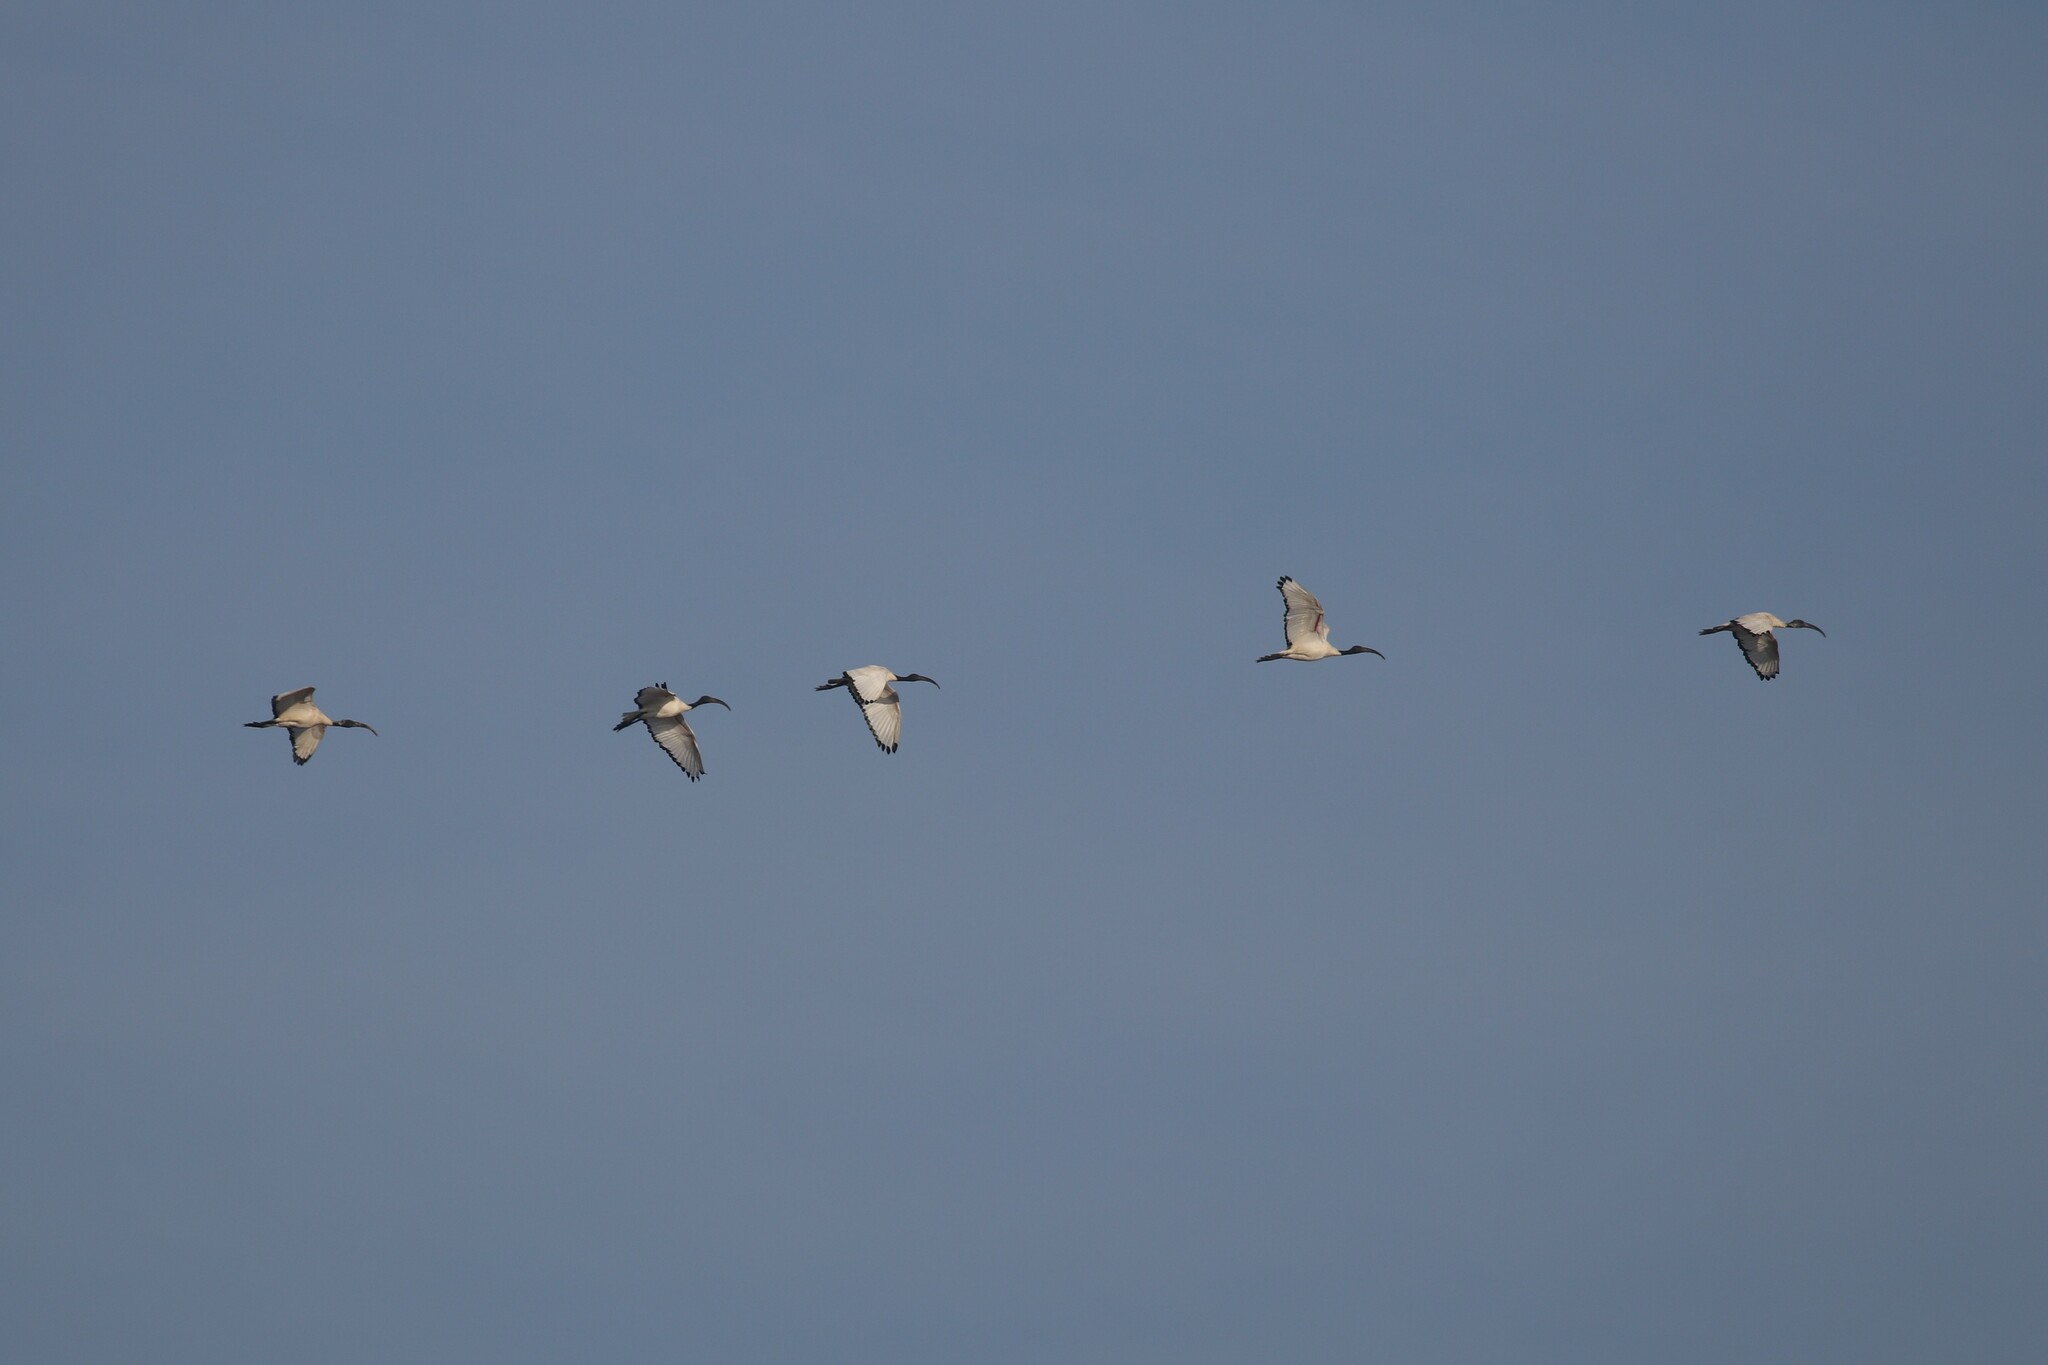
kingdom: Animalia
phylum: Chordata
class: Aves
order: Pelecaniformes
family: Threskiornithidae
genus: Threskiornis
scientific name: Threskiornis aethiopicus
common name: Sacred ibis
